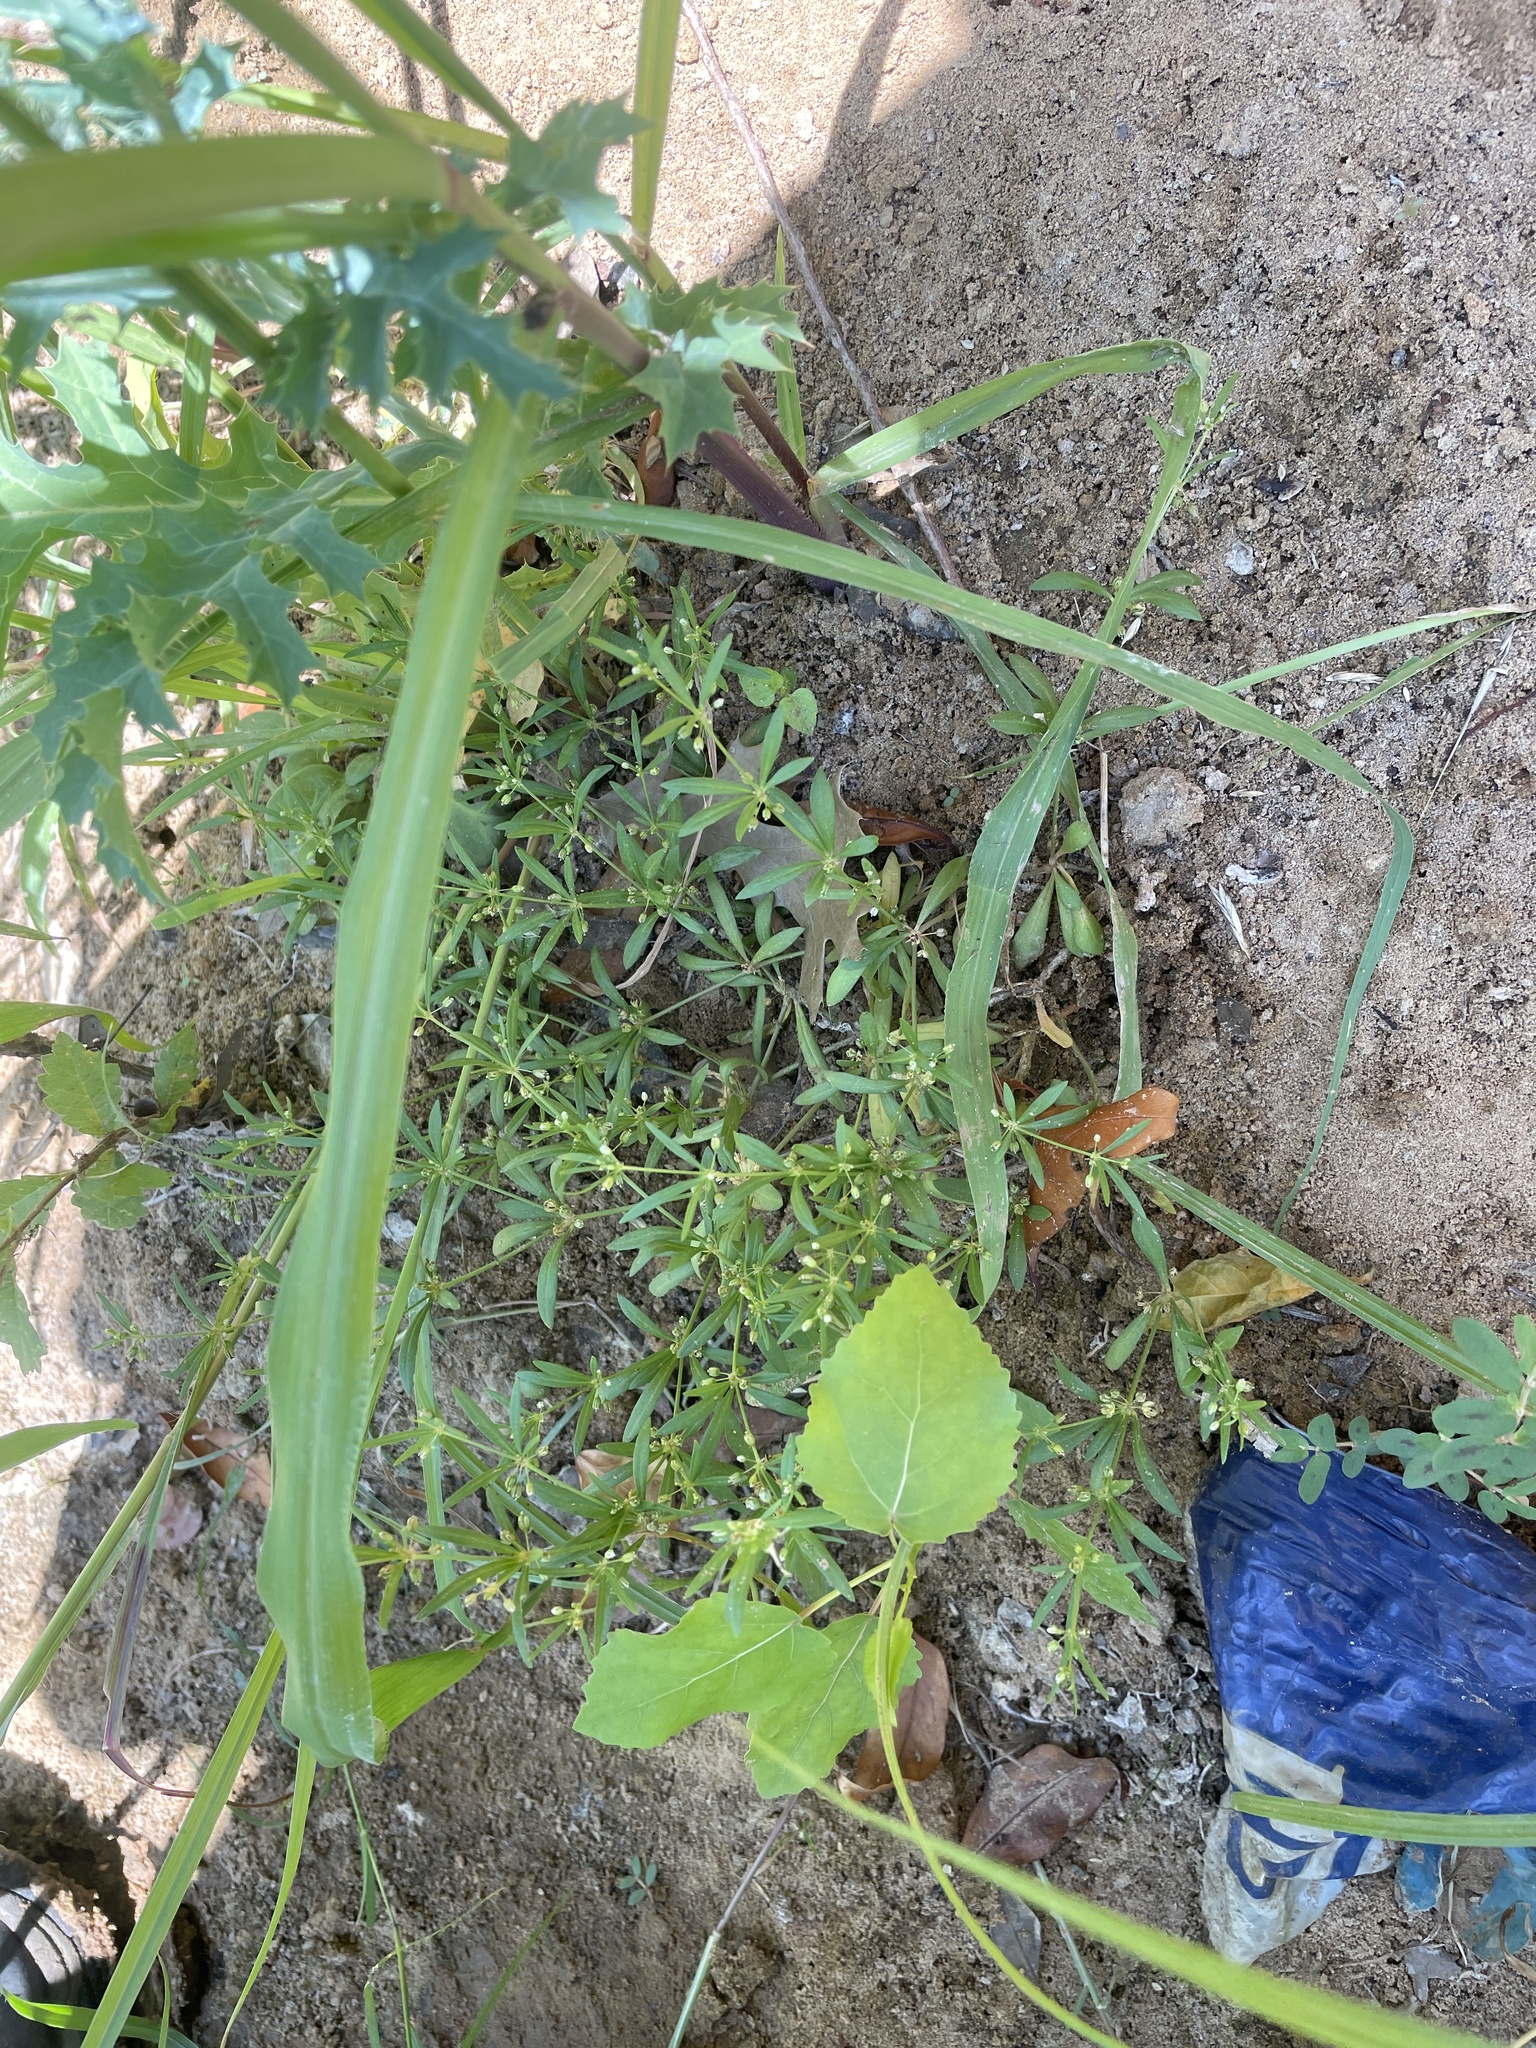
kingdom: Plantae
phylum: Tracheophyta
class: Magnoliopsida
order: Caryophyllales
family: Molluginaceae
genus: Mollugo
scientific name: Mollugo verticillata
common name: Green carpetweed
